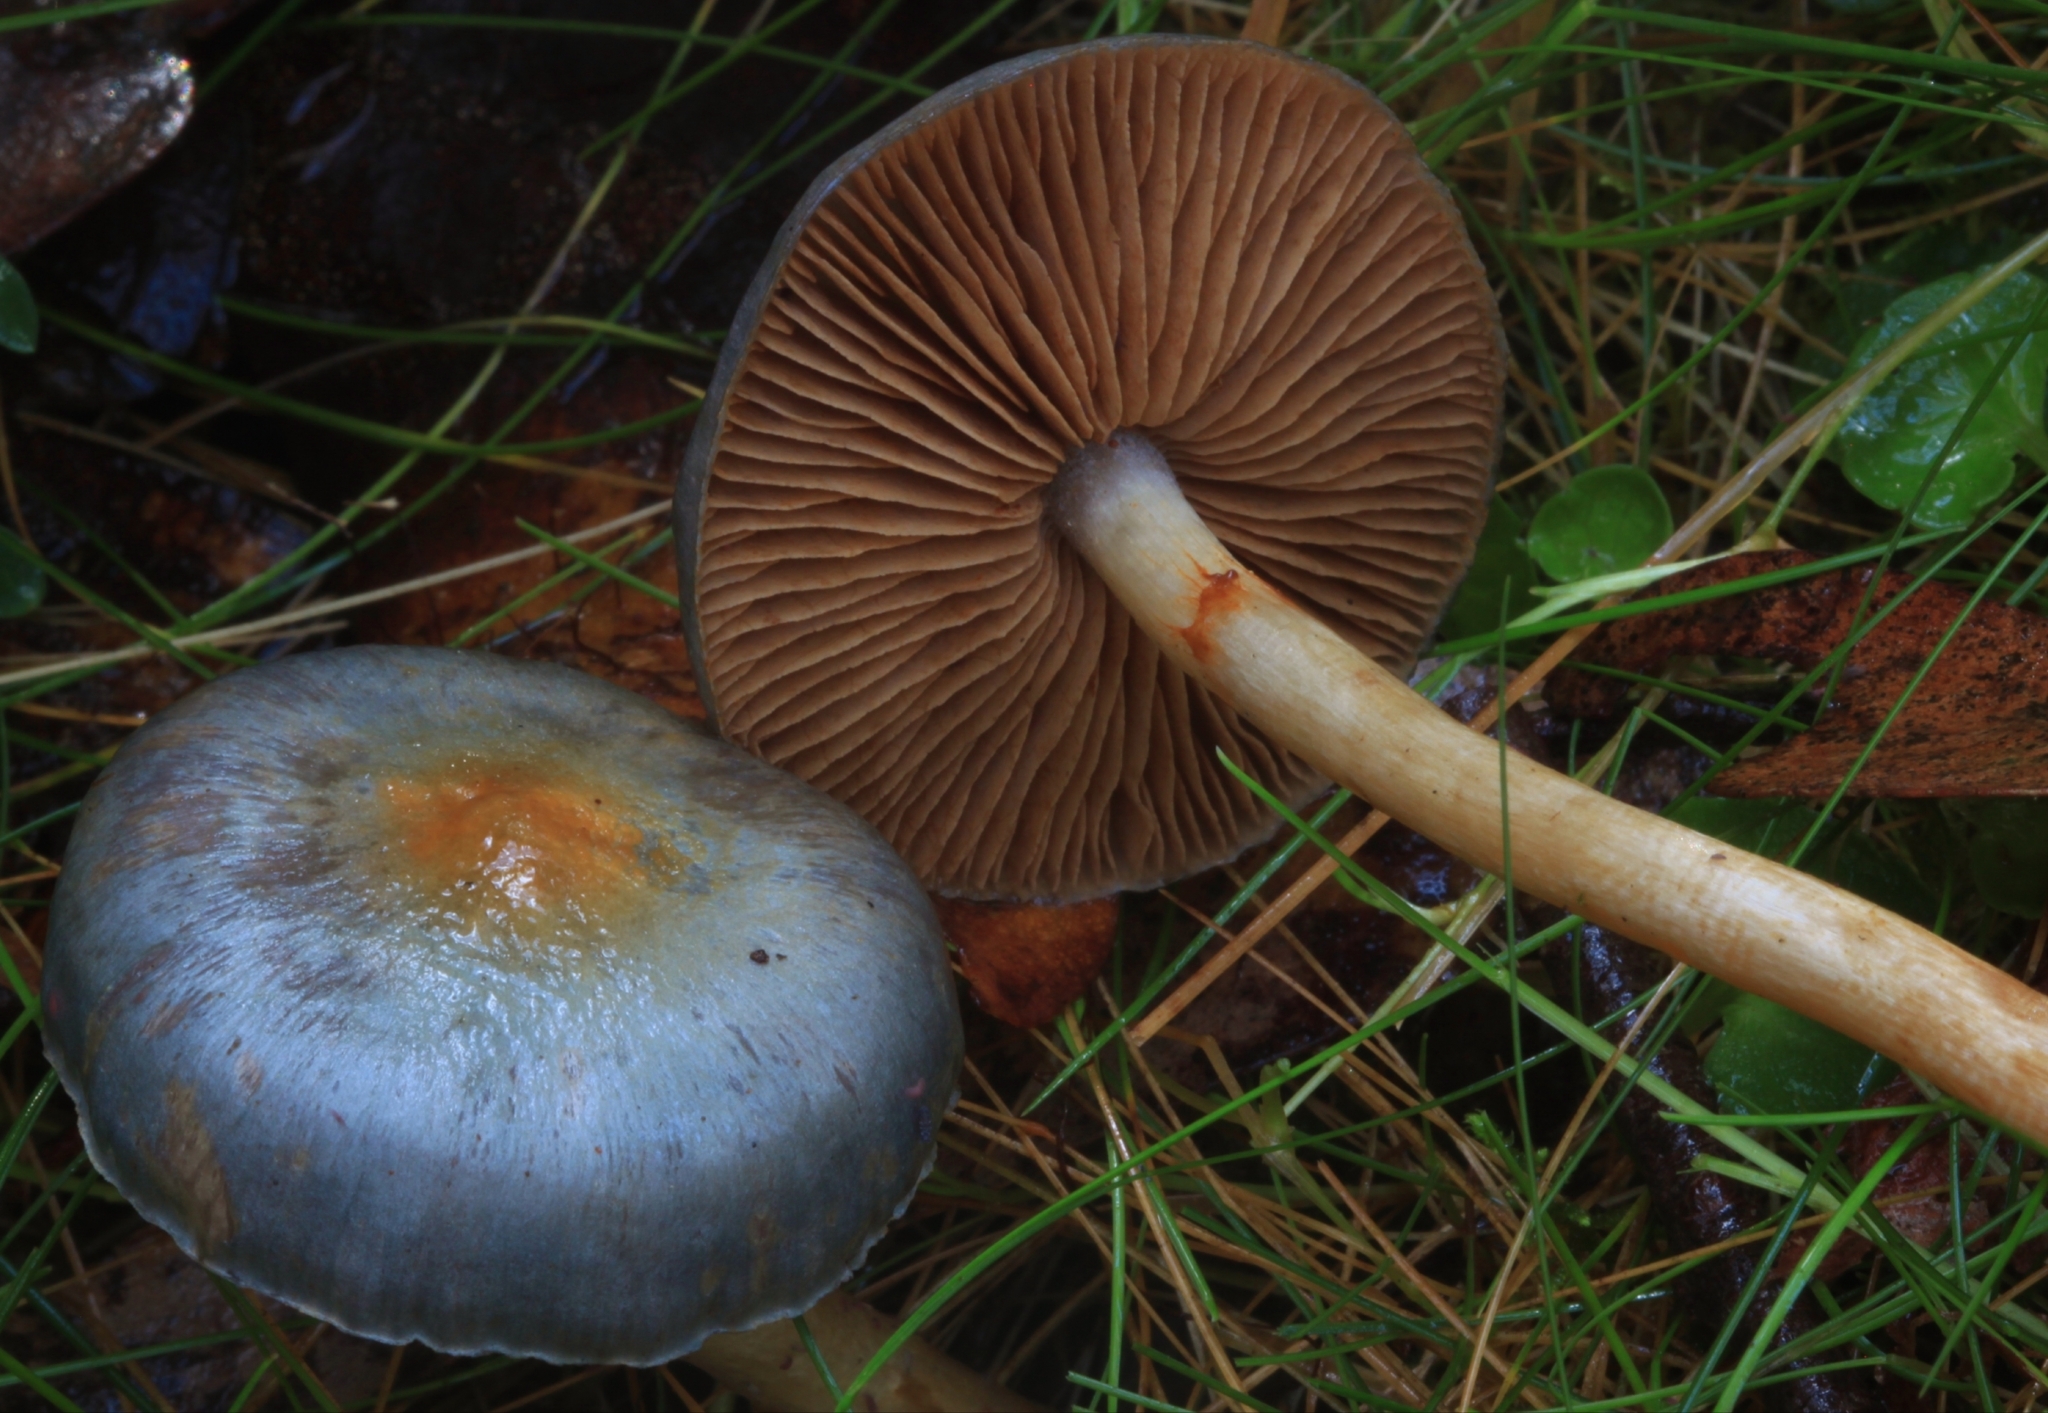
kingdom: Fungi
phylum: Basidiomycota
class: Agaricomycetes
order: Agaricales
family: Cortinariaceae
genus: Cortinarius
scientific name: Cortinarius rotundisporus
